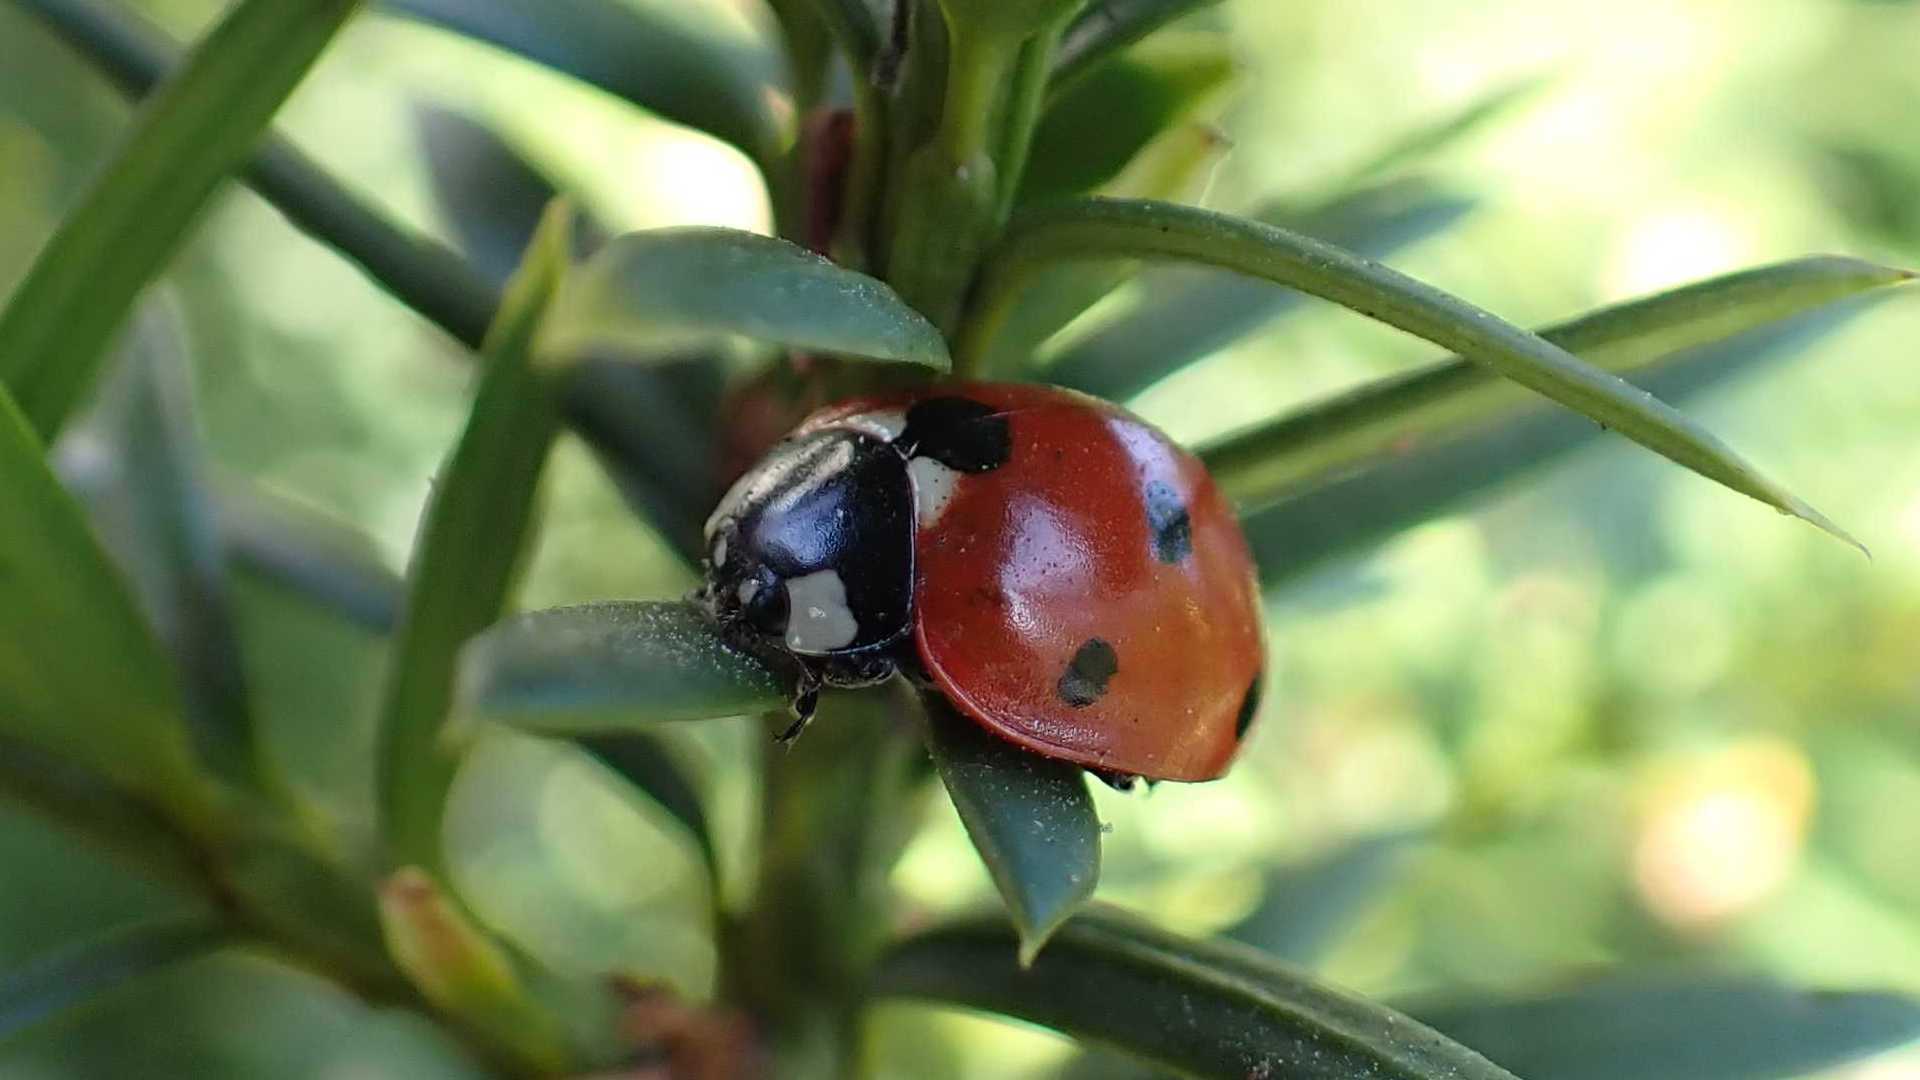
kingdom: Animalia
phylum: Arthropoda
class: Insecta
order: Coleoptera
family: Coccinellidae
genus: Coccinella
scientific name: Coccinella septempunctata
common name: Sevenspotted lady beetle
